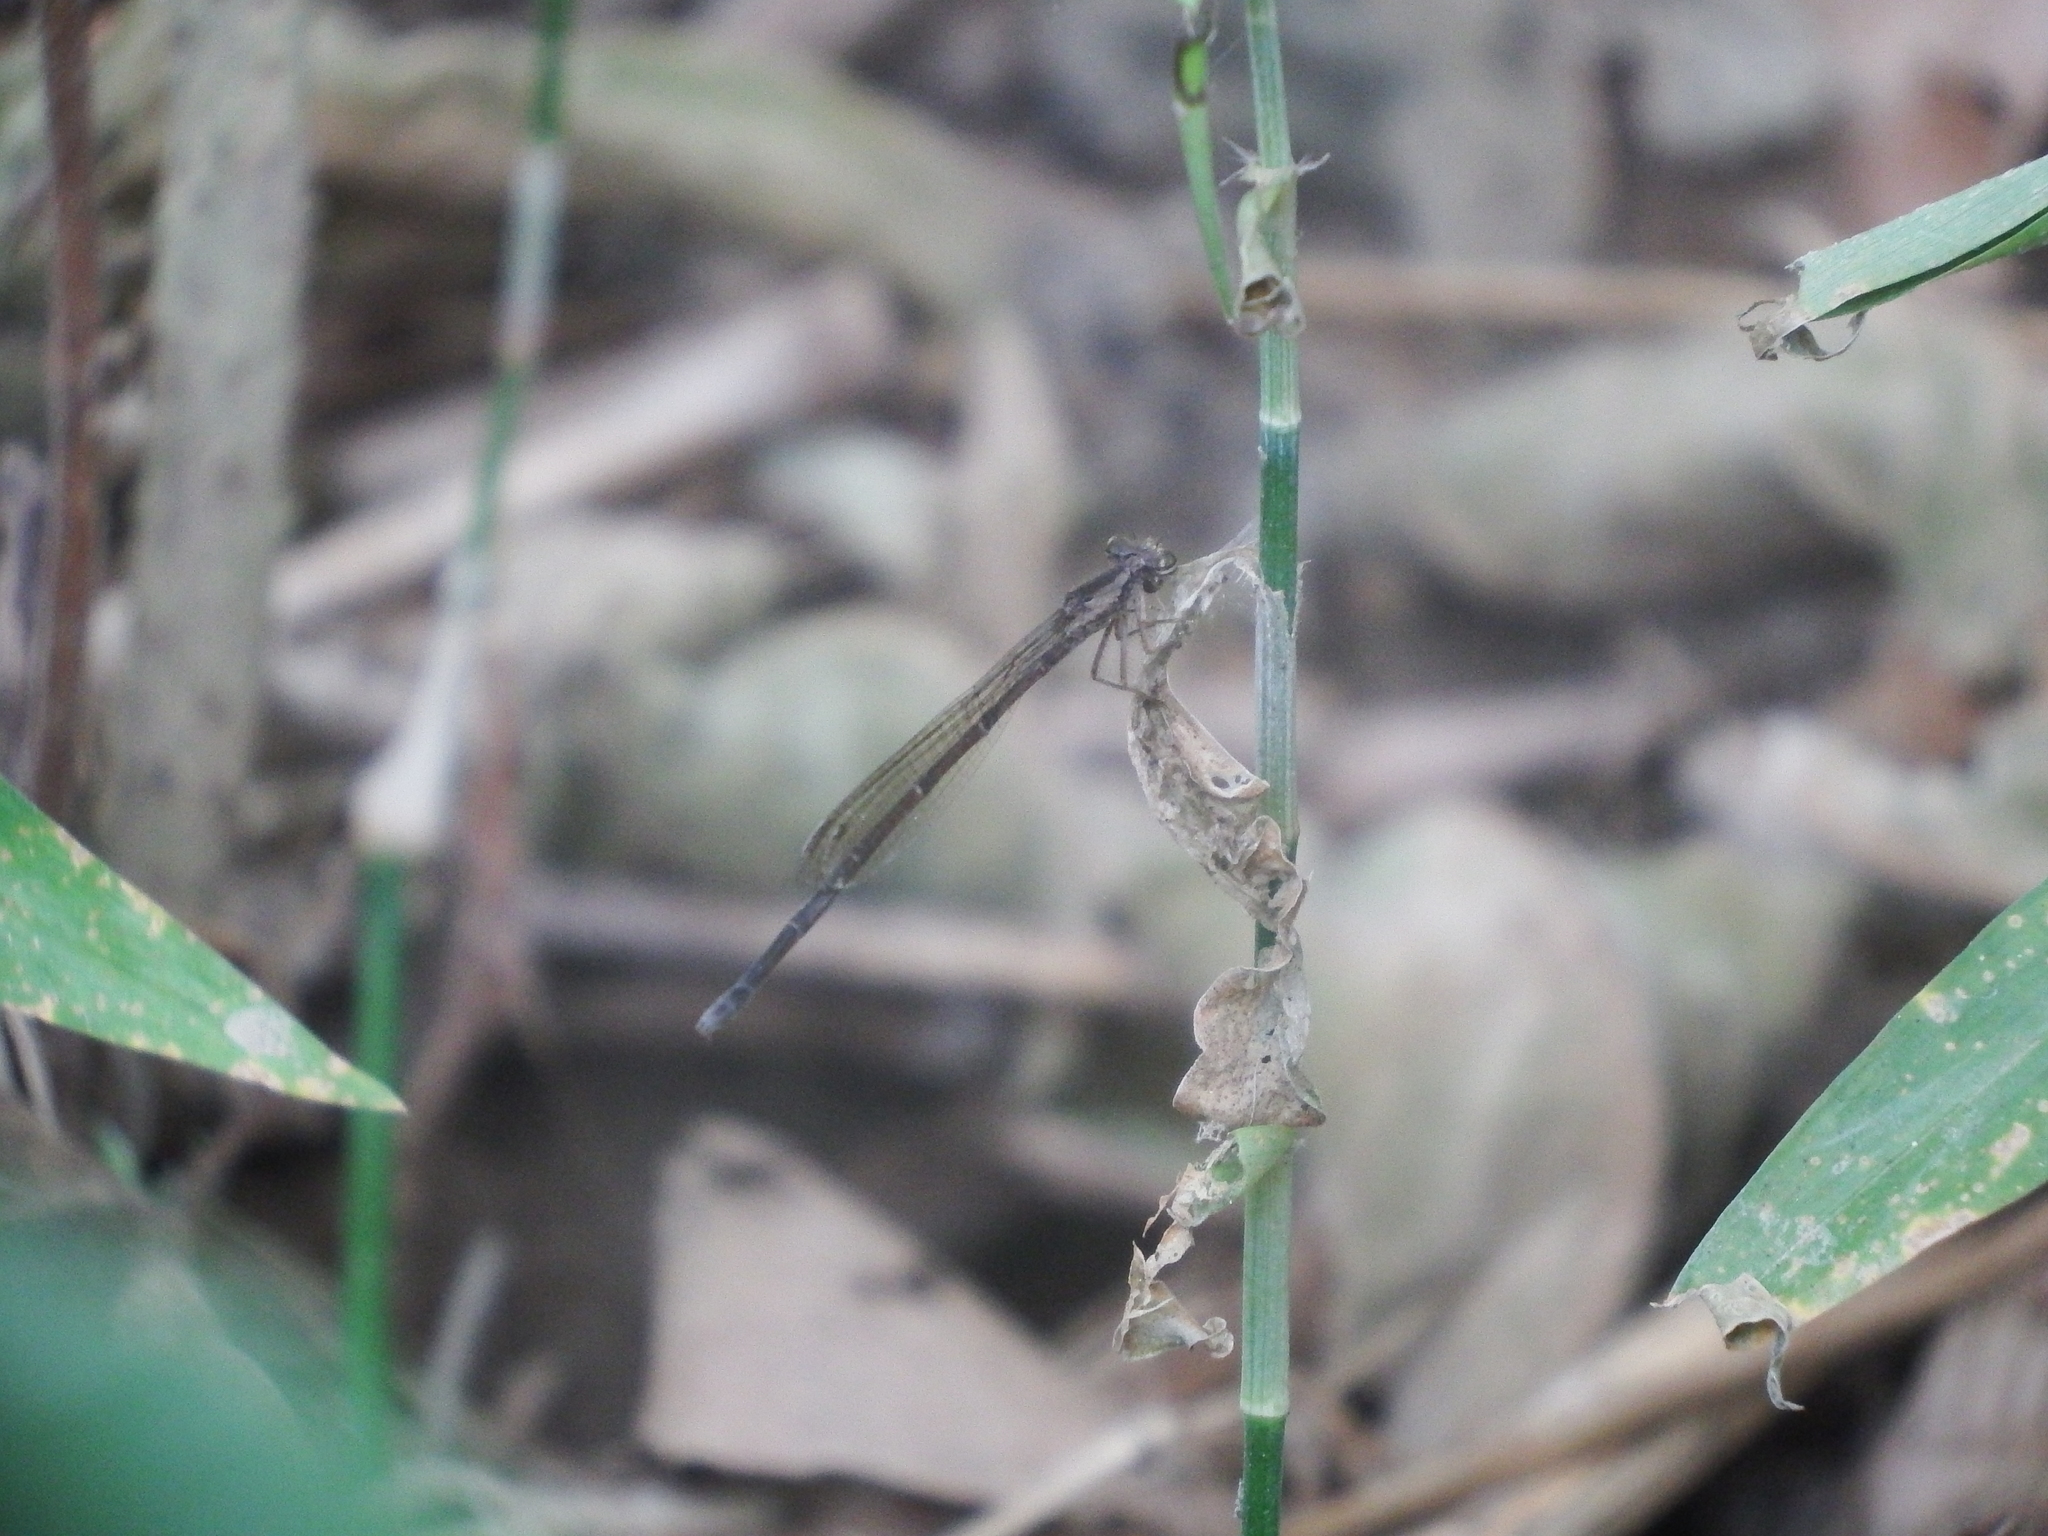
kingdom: Animalia
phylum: Arthropoda
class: Insecta
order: Odonata
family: Platycnemididae
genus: Copera
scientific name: Copera marginipes
